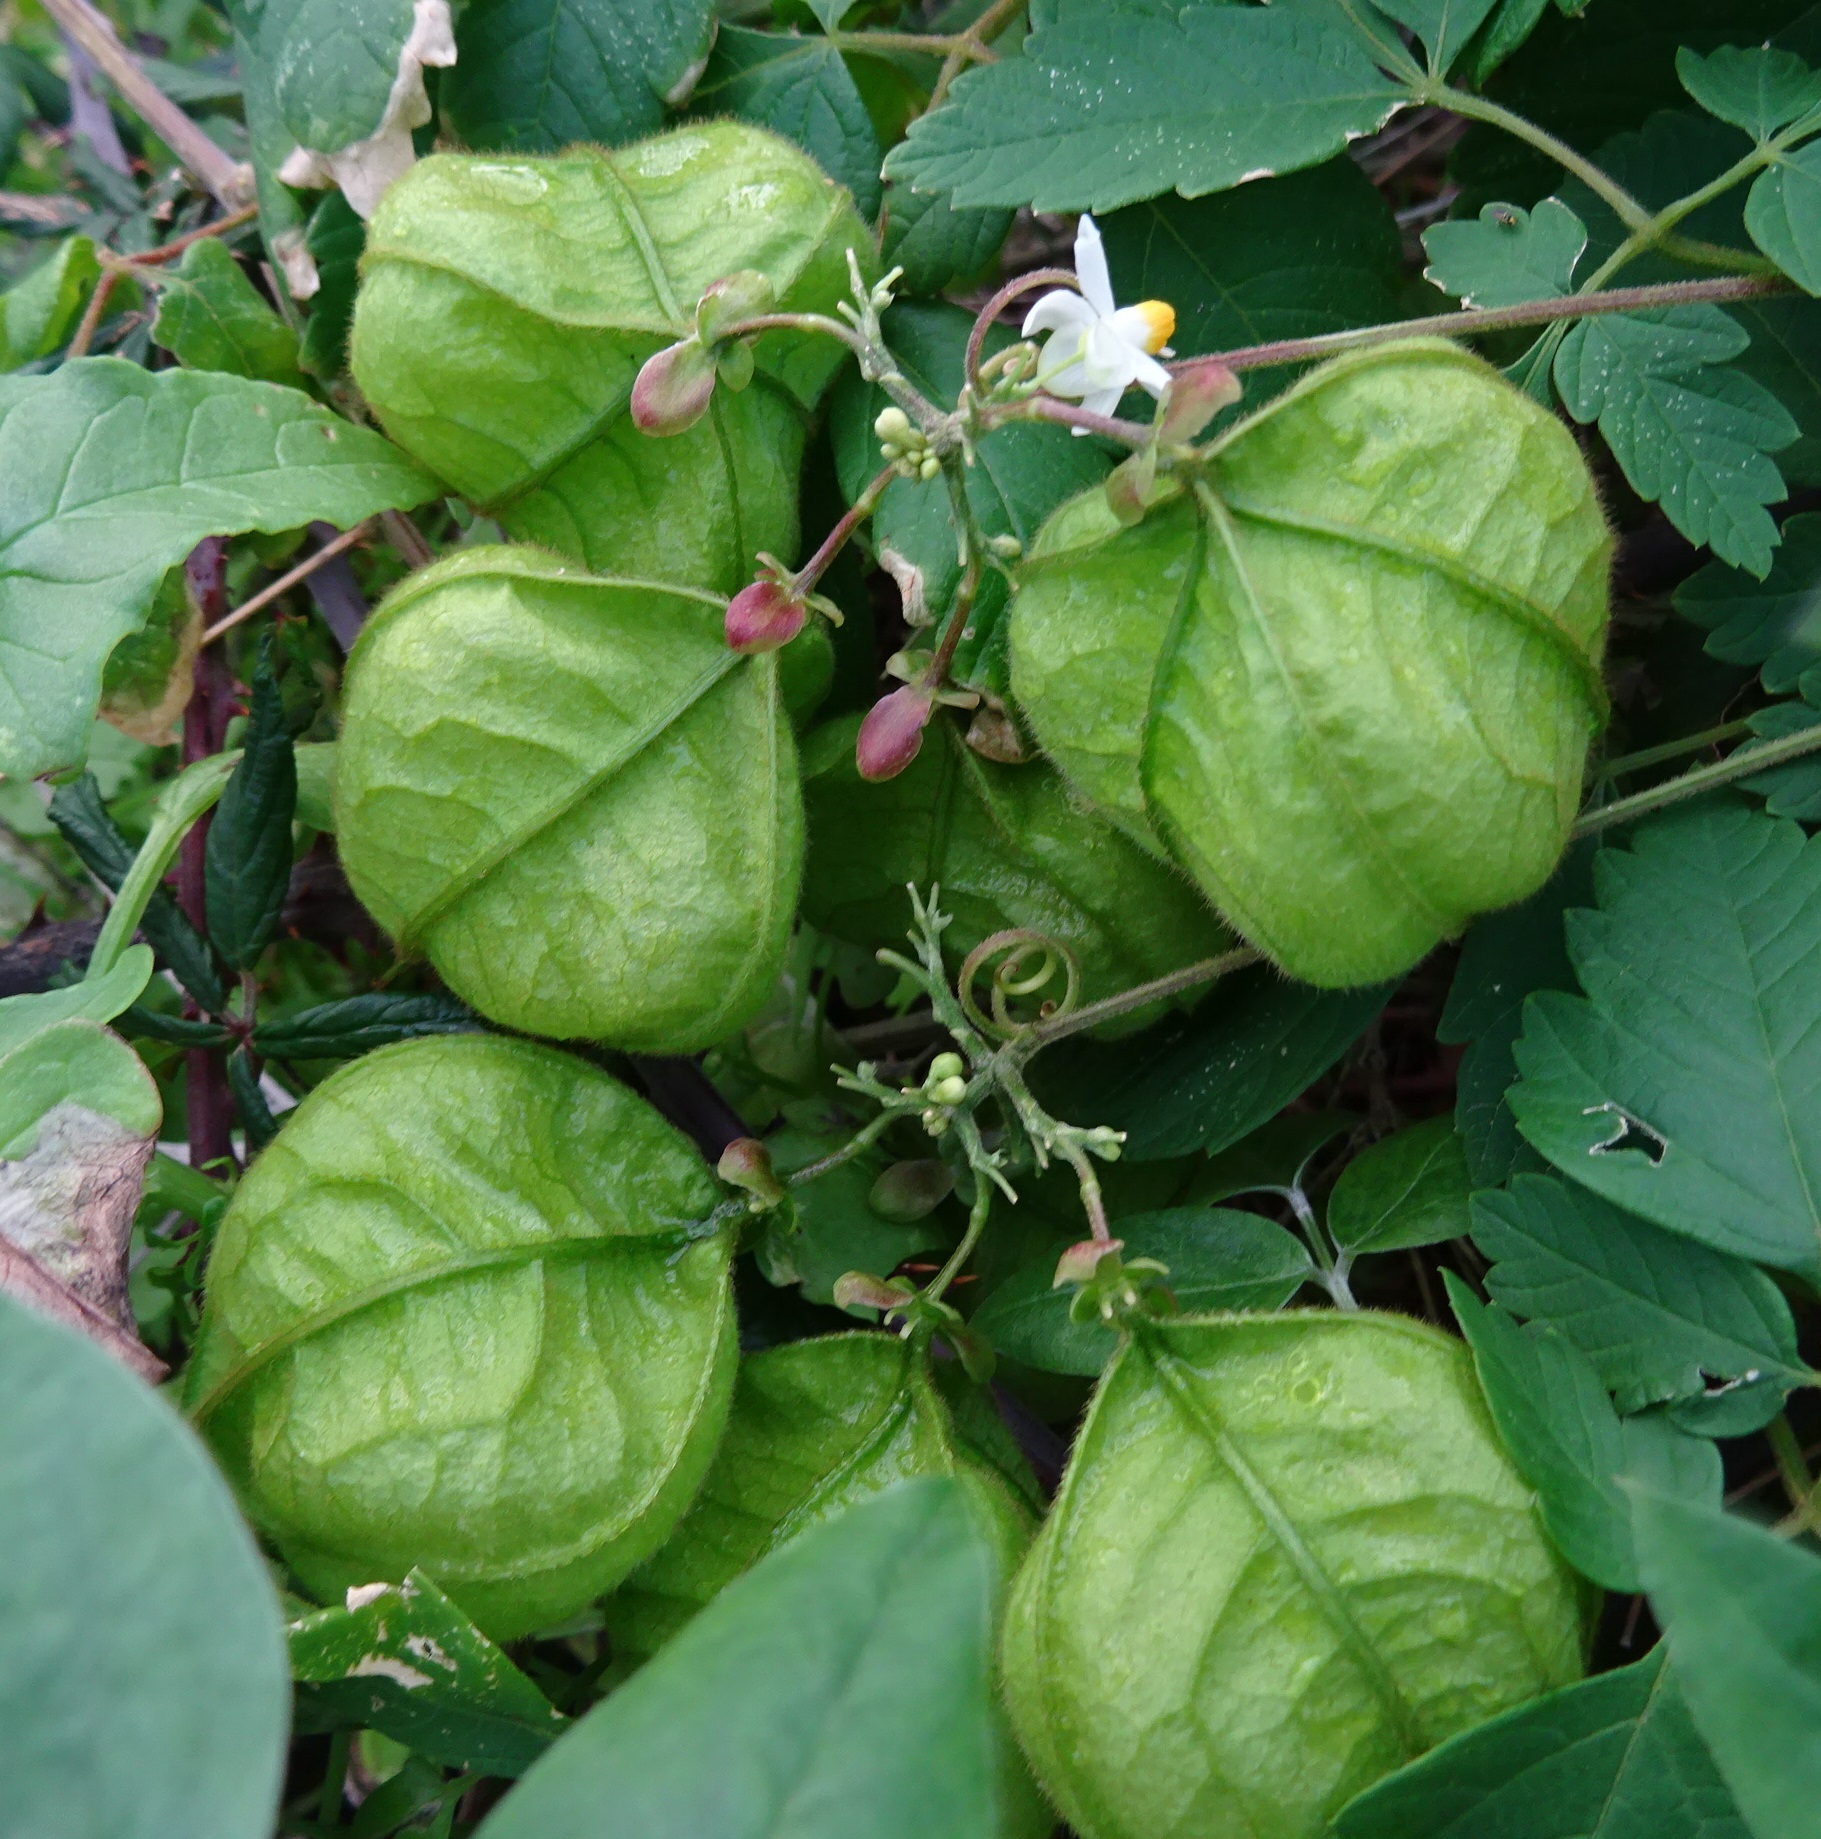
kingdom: Plantae
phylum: Tracheophyta
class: Magnoliopsida
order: Sapindales
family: Sapindaceae
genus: Cardiospermum
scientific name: Cardiospermum grandiflorum
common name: Balloon vine
